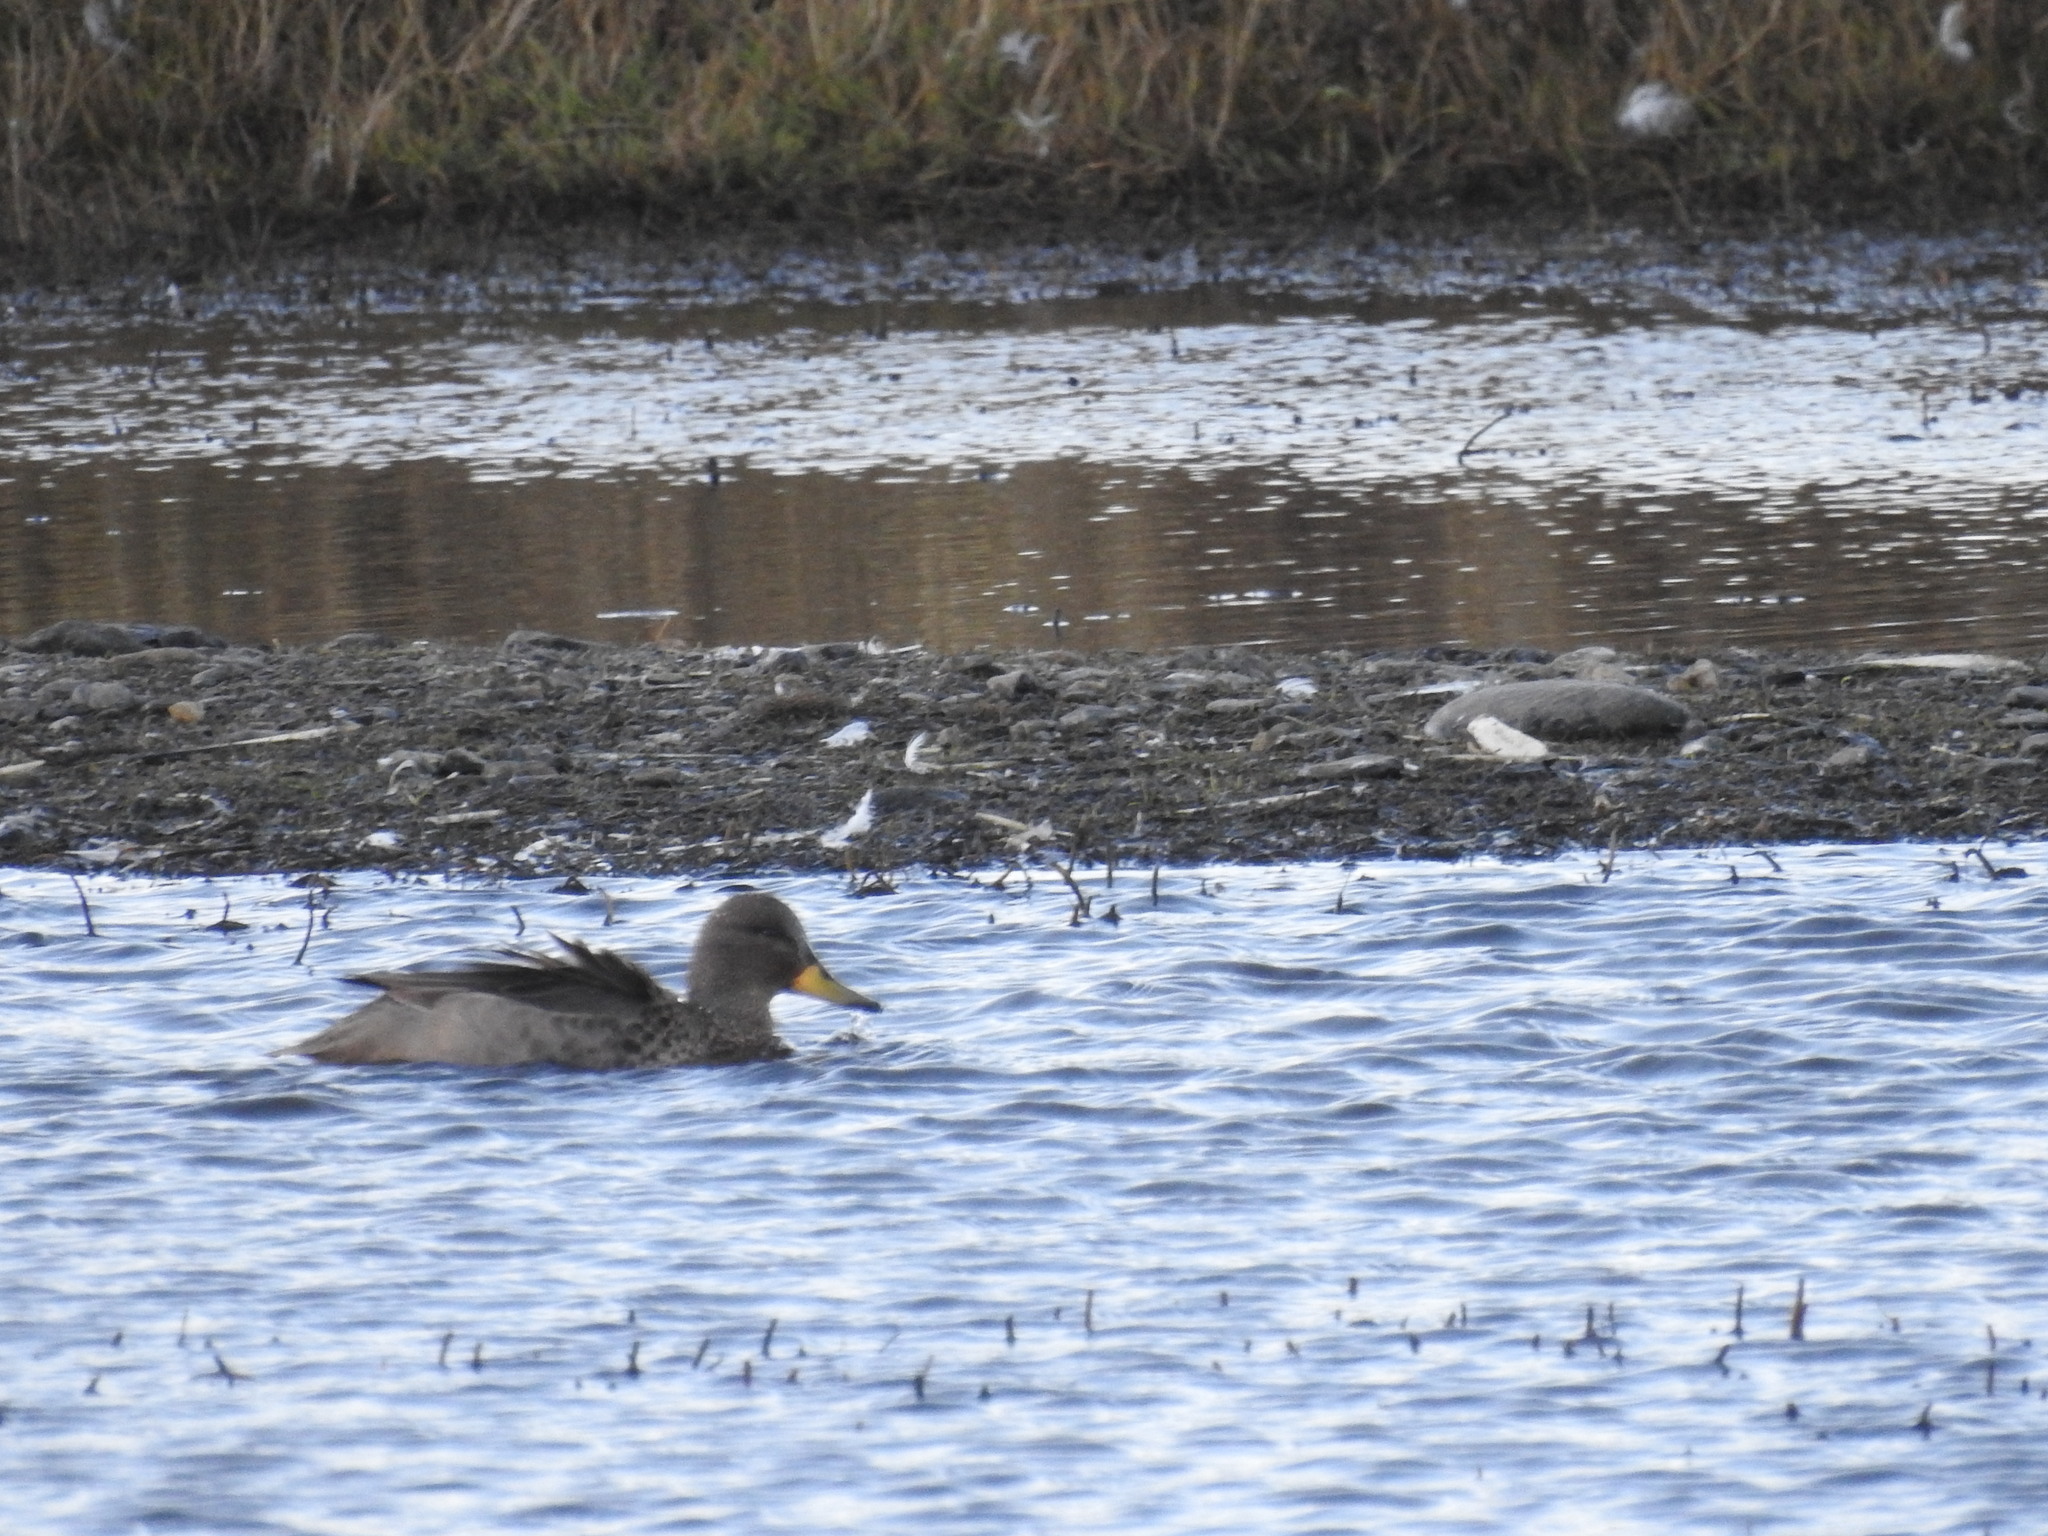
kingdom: Animalia
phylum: Chordata
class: Aves
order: Anseriformes
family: Anatidae
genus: Anas
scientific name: Anas flavirostris
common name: Yellow-billed teal
